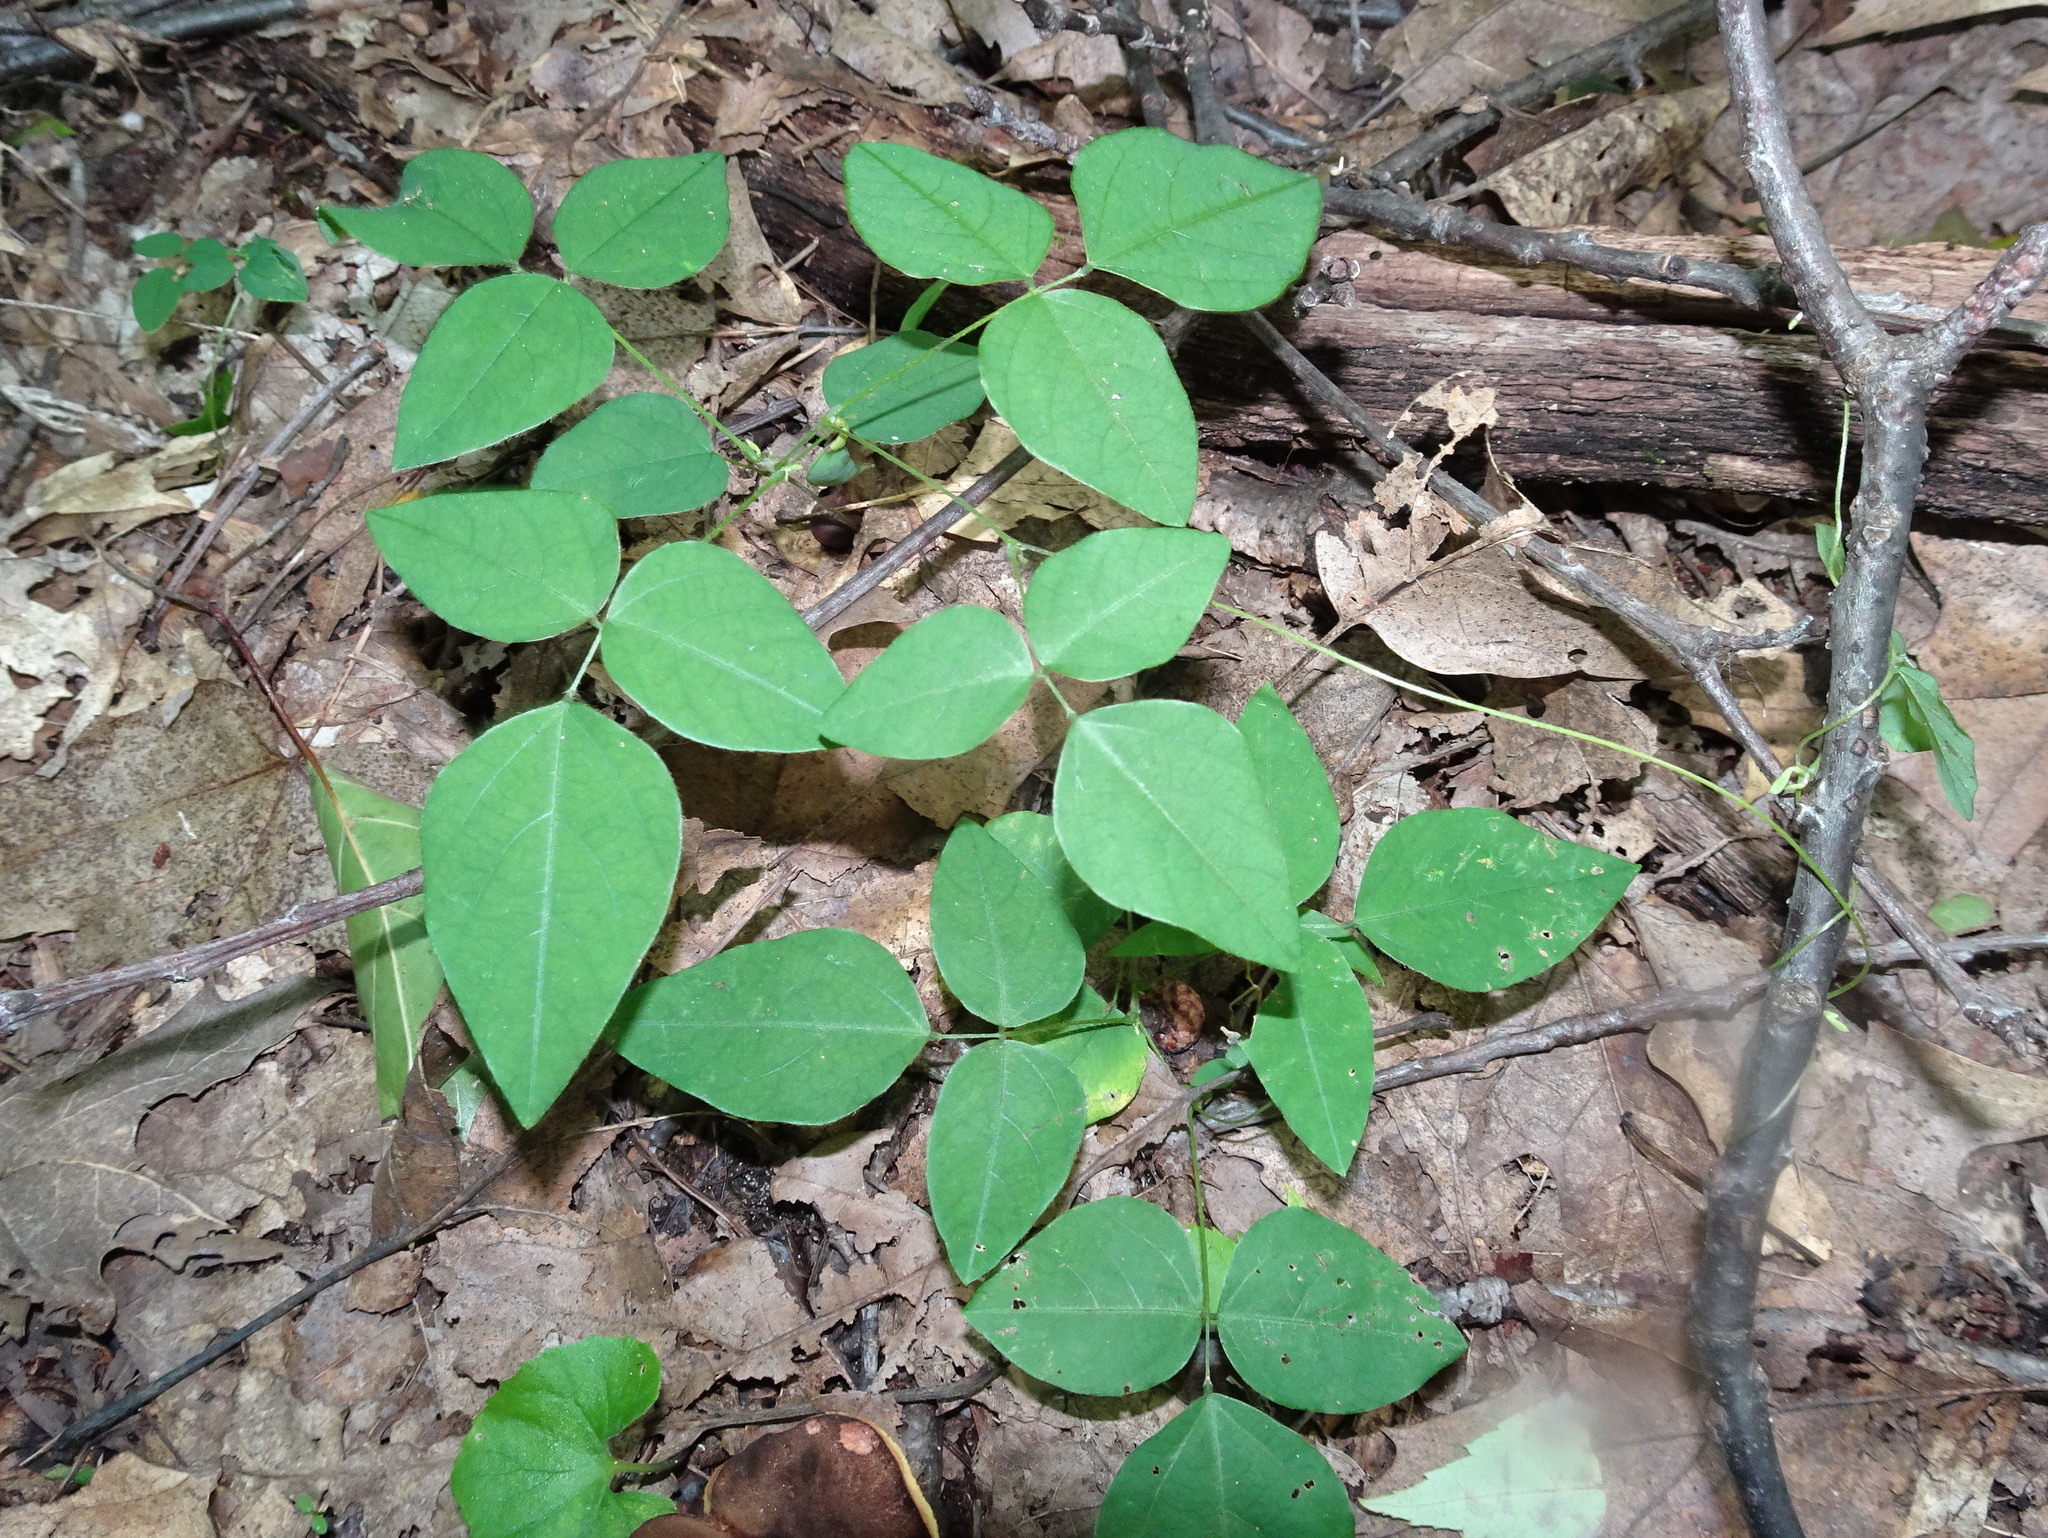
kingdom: Plantae
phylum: Tracheophyta
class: Magnoliopsida
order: Fabales
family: Fabaceae
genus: Amphicarpaea
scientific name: Amphicarpaea bracteata
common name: American hog peanut
